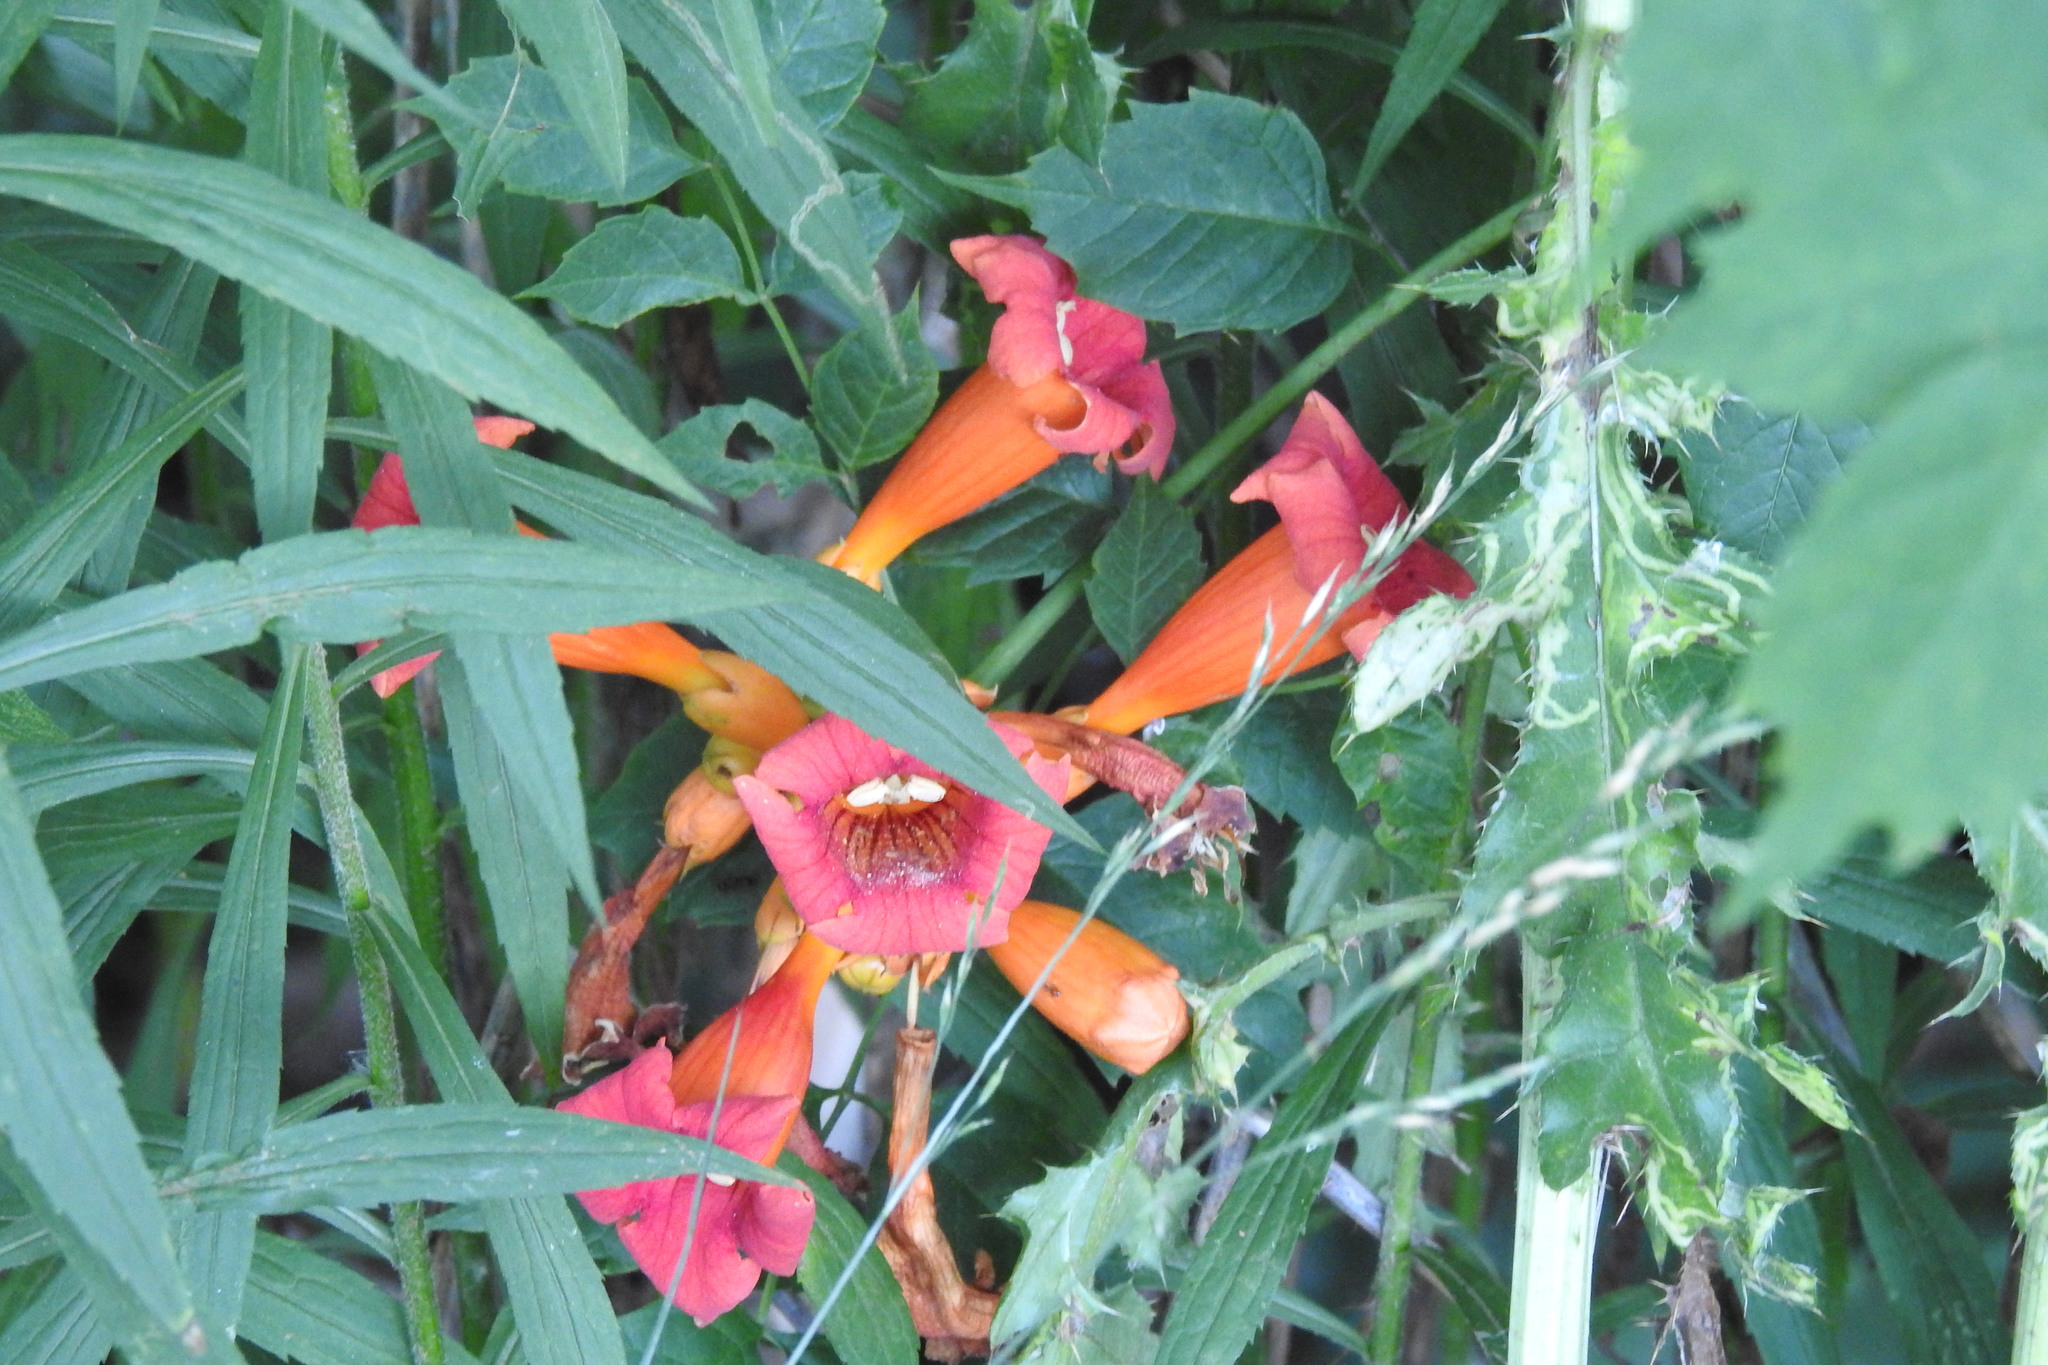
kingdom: Plantae
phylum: Tracheophyta
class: Magnoliopsida
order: Lamiales
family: Bignoniaceae
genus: Campsis
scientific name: Campsis radicans
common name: Trumpet-creeper
